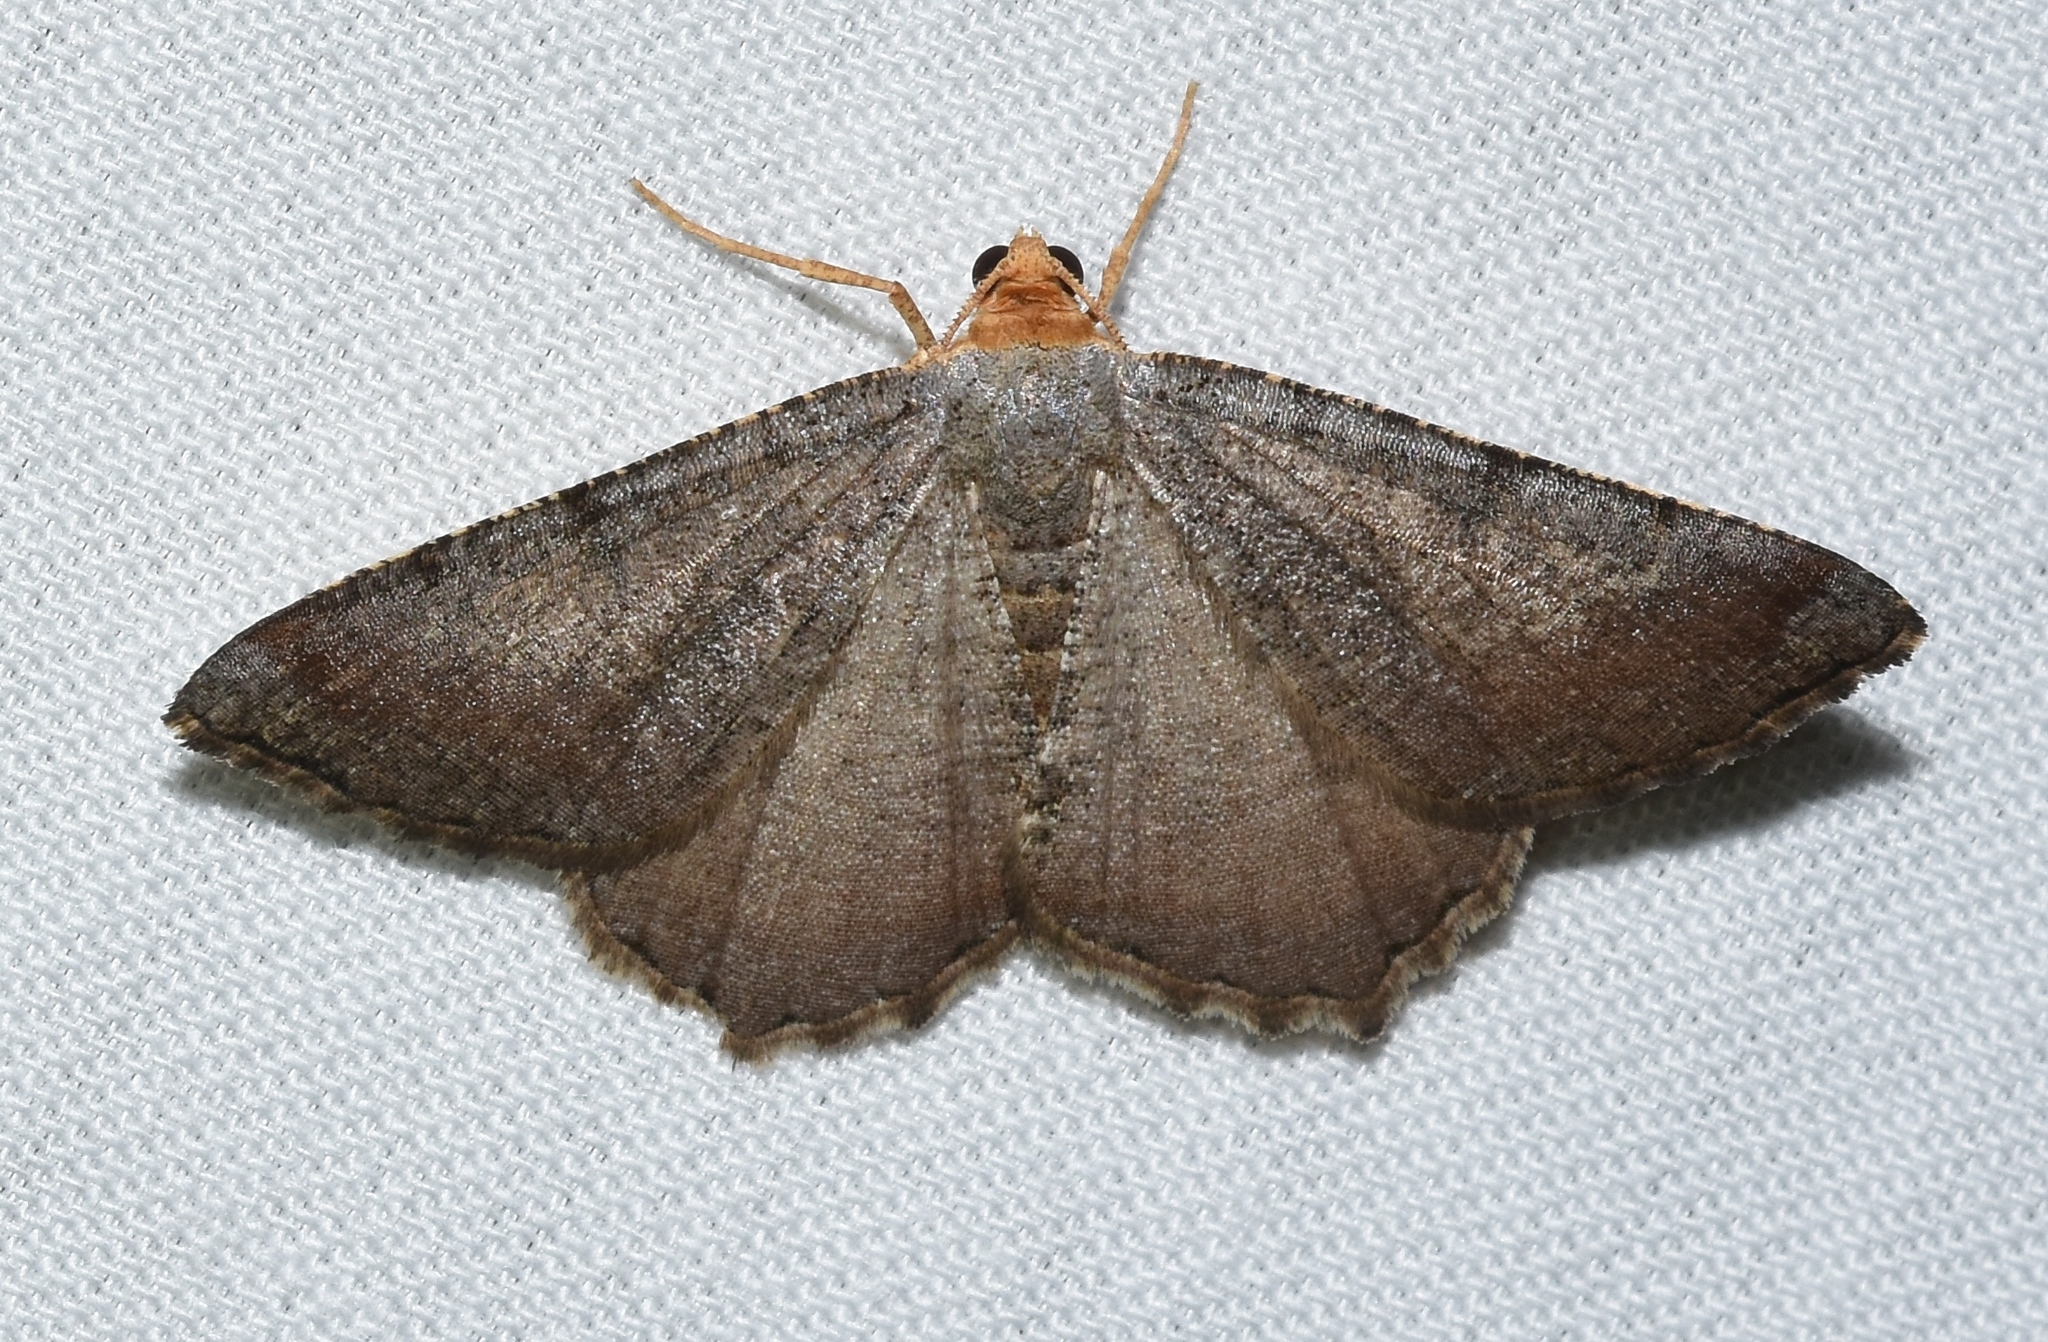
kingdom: Animalia
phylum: Arthropoda
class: Insecta
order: Lepidoptera
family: Geometridae
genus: Macaria
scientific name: Macaria transitaria
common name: Blurry chocolate angle
